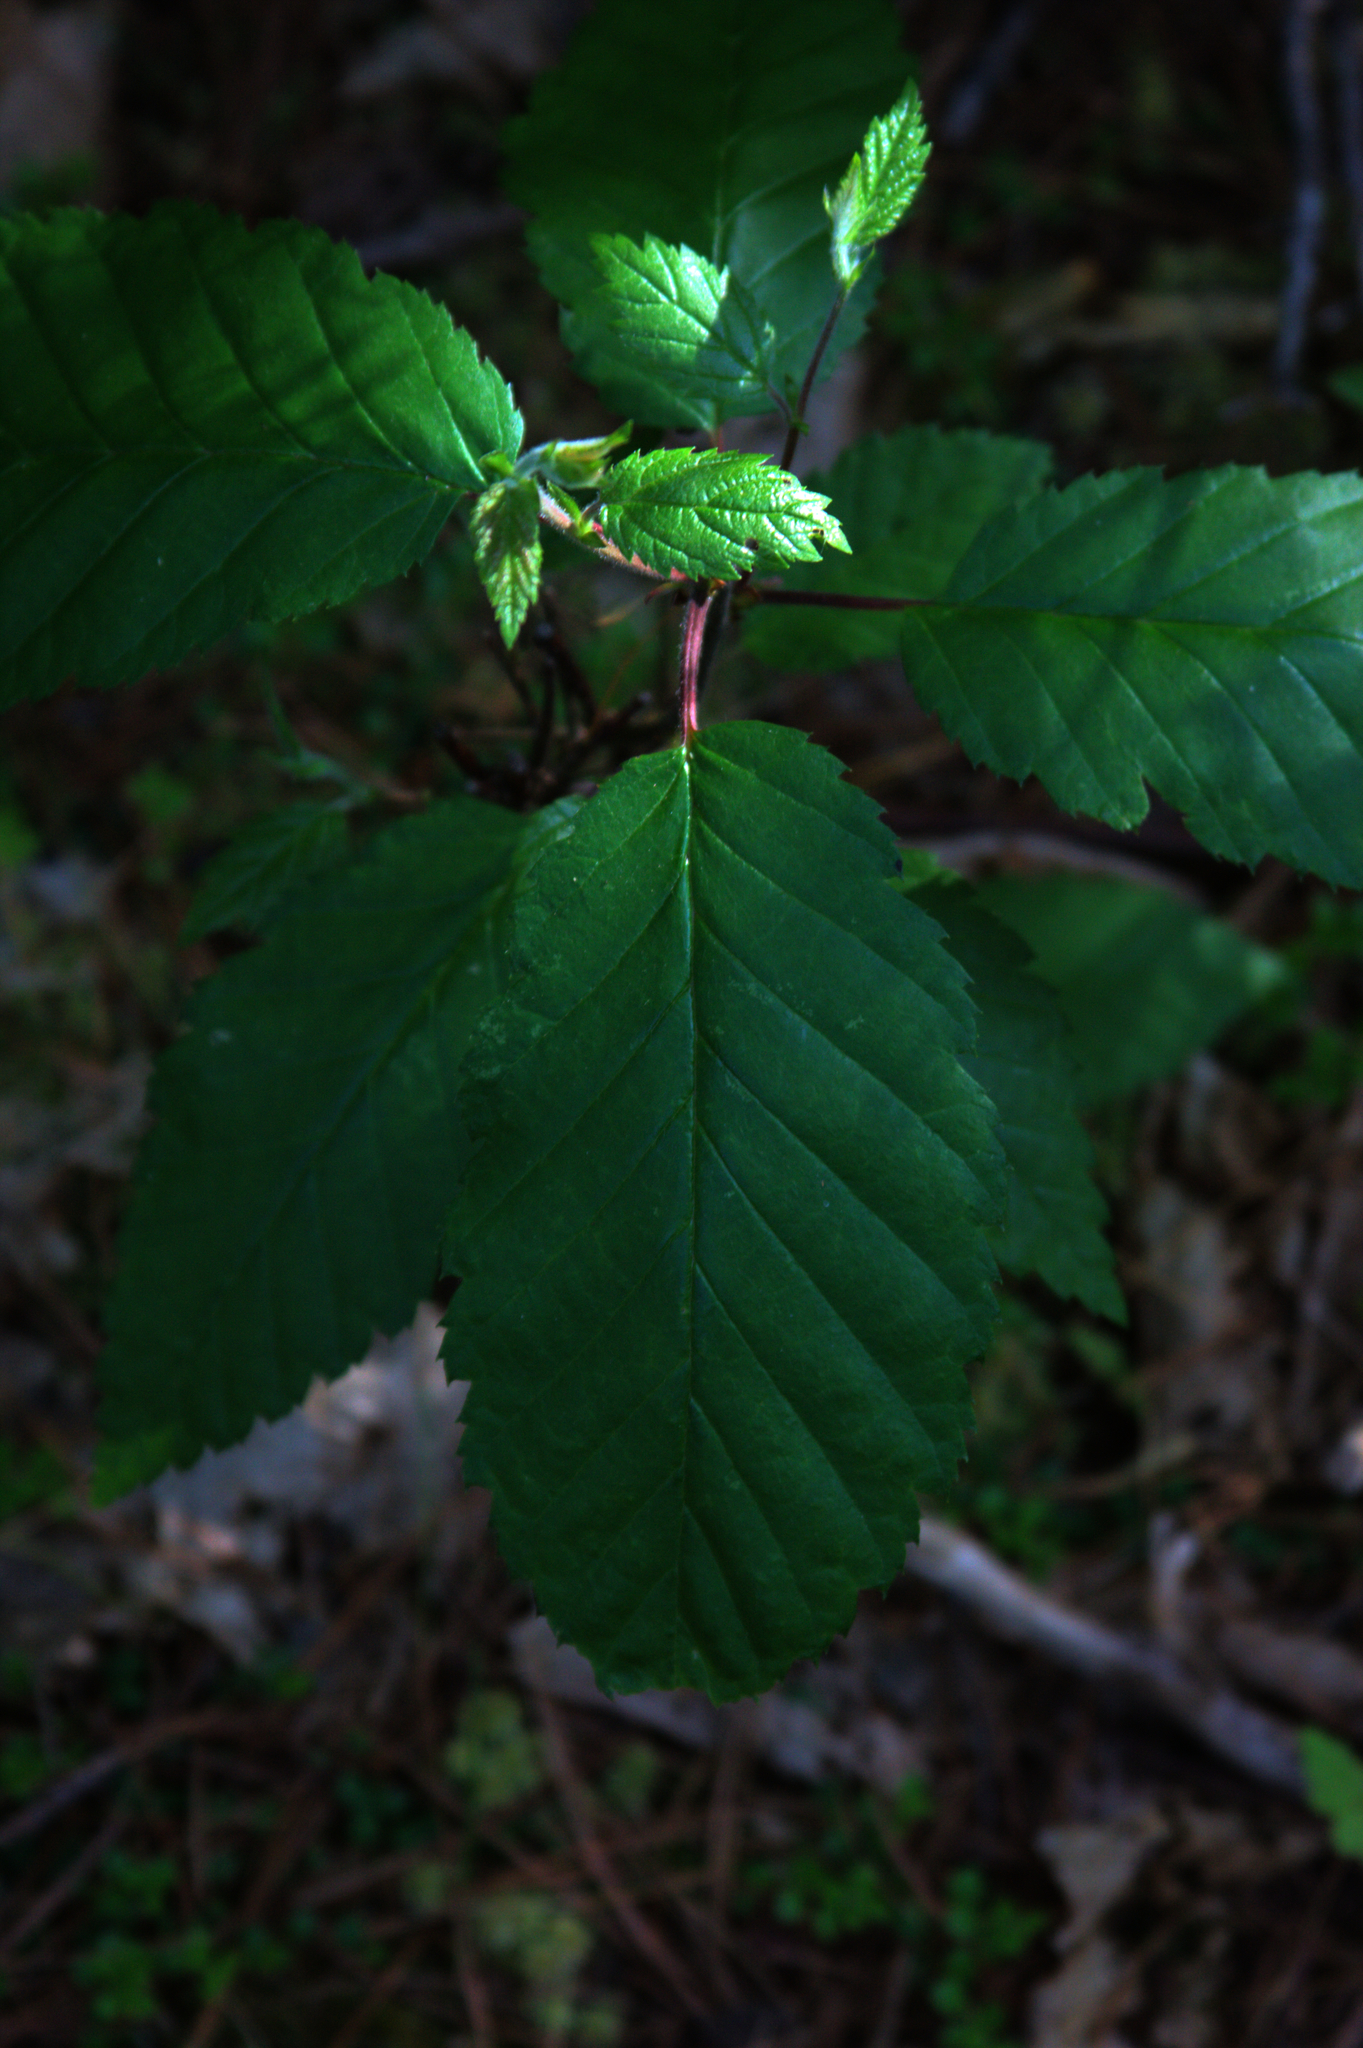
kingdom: Plantae
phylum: Tracheophyta
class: Magnoliopsida
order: Fagales
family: Betulaceae
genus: Betula
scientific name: Betula alleghaniensis
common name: Yellow birch
